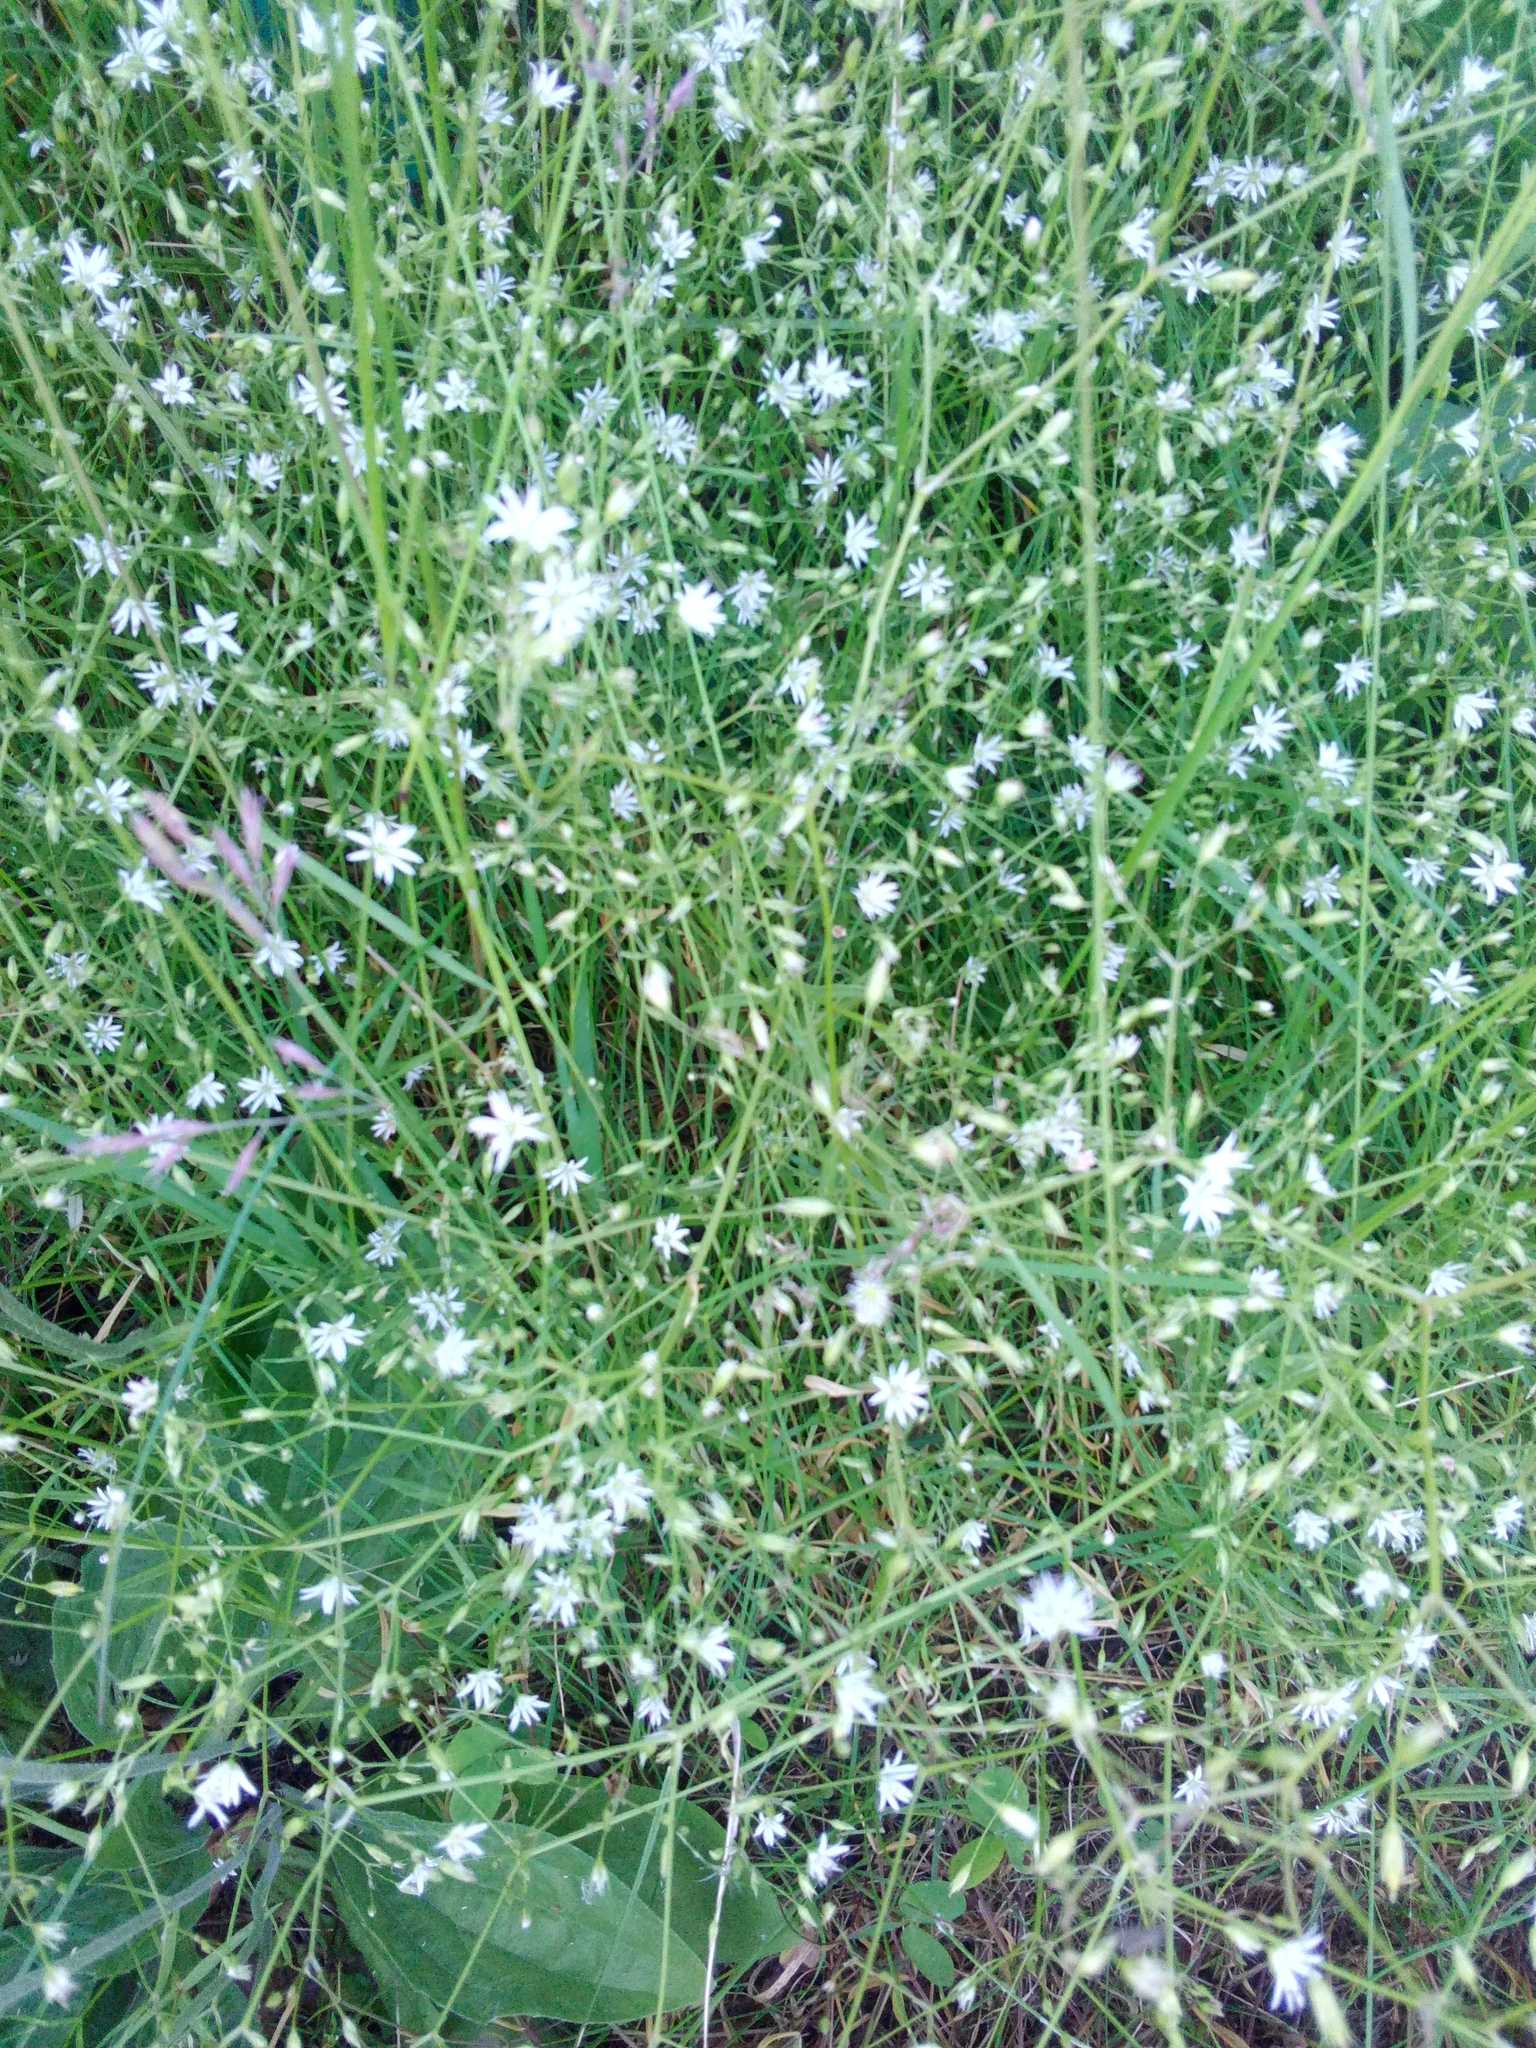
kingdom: Plantae
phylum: Tracheophyta
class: Magnoliopsida
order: Caryophyllales
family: Caryophyllaceae
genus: Stellaria
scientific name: Stellaria graminea
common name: Grass-like starwort
